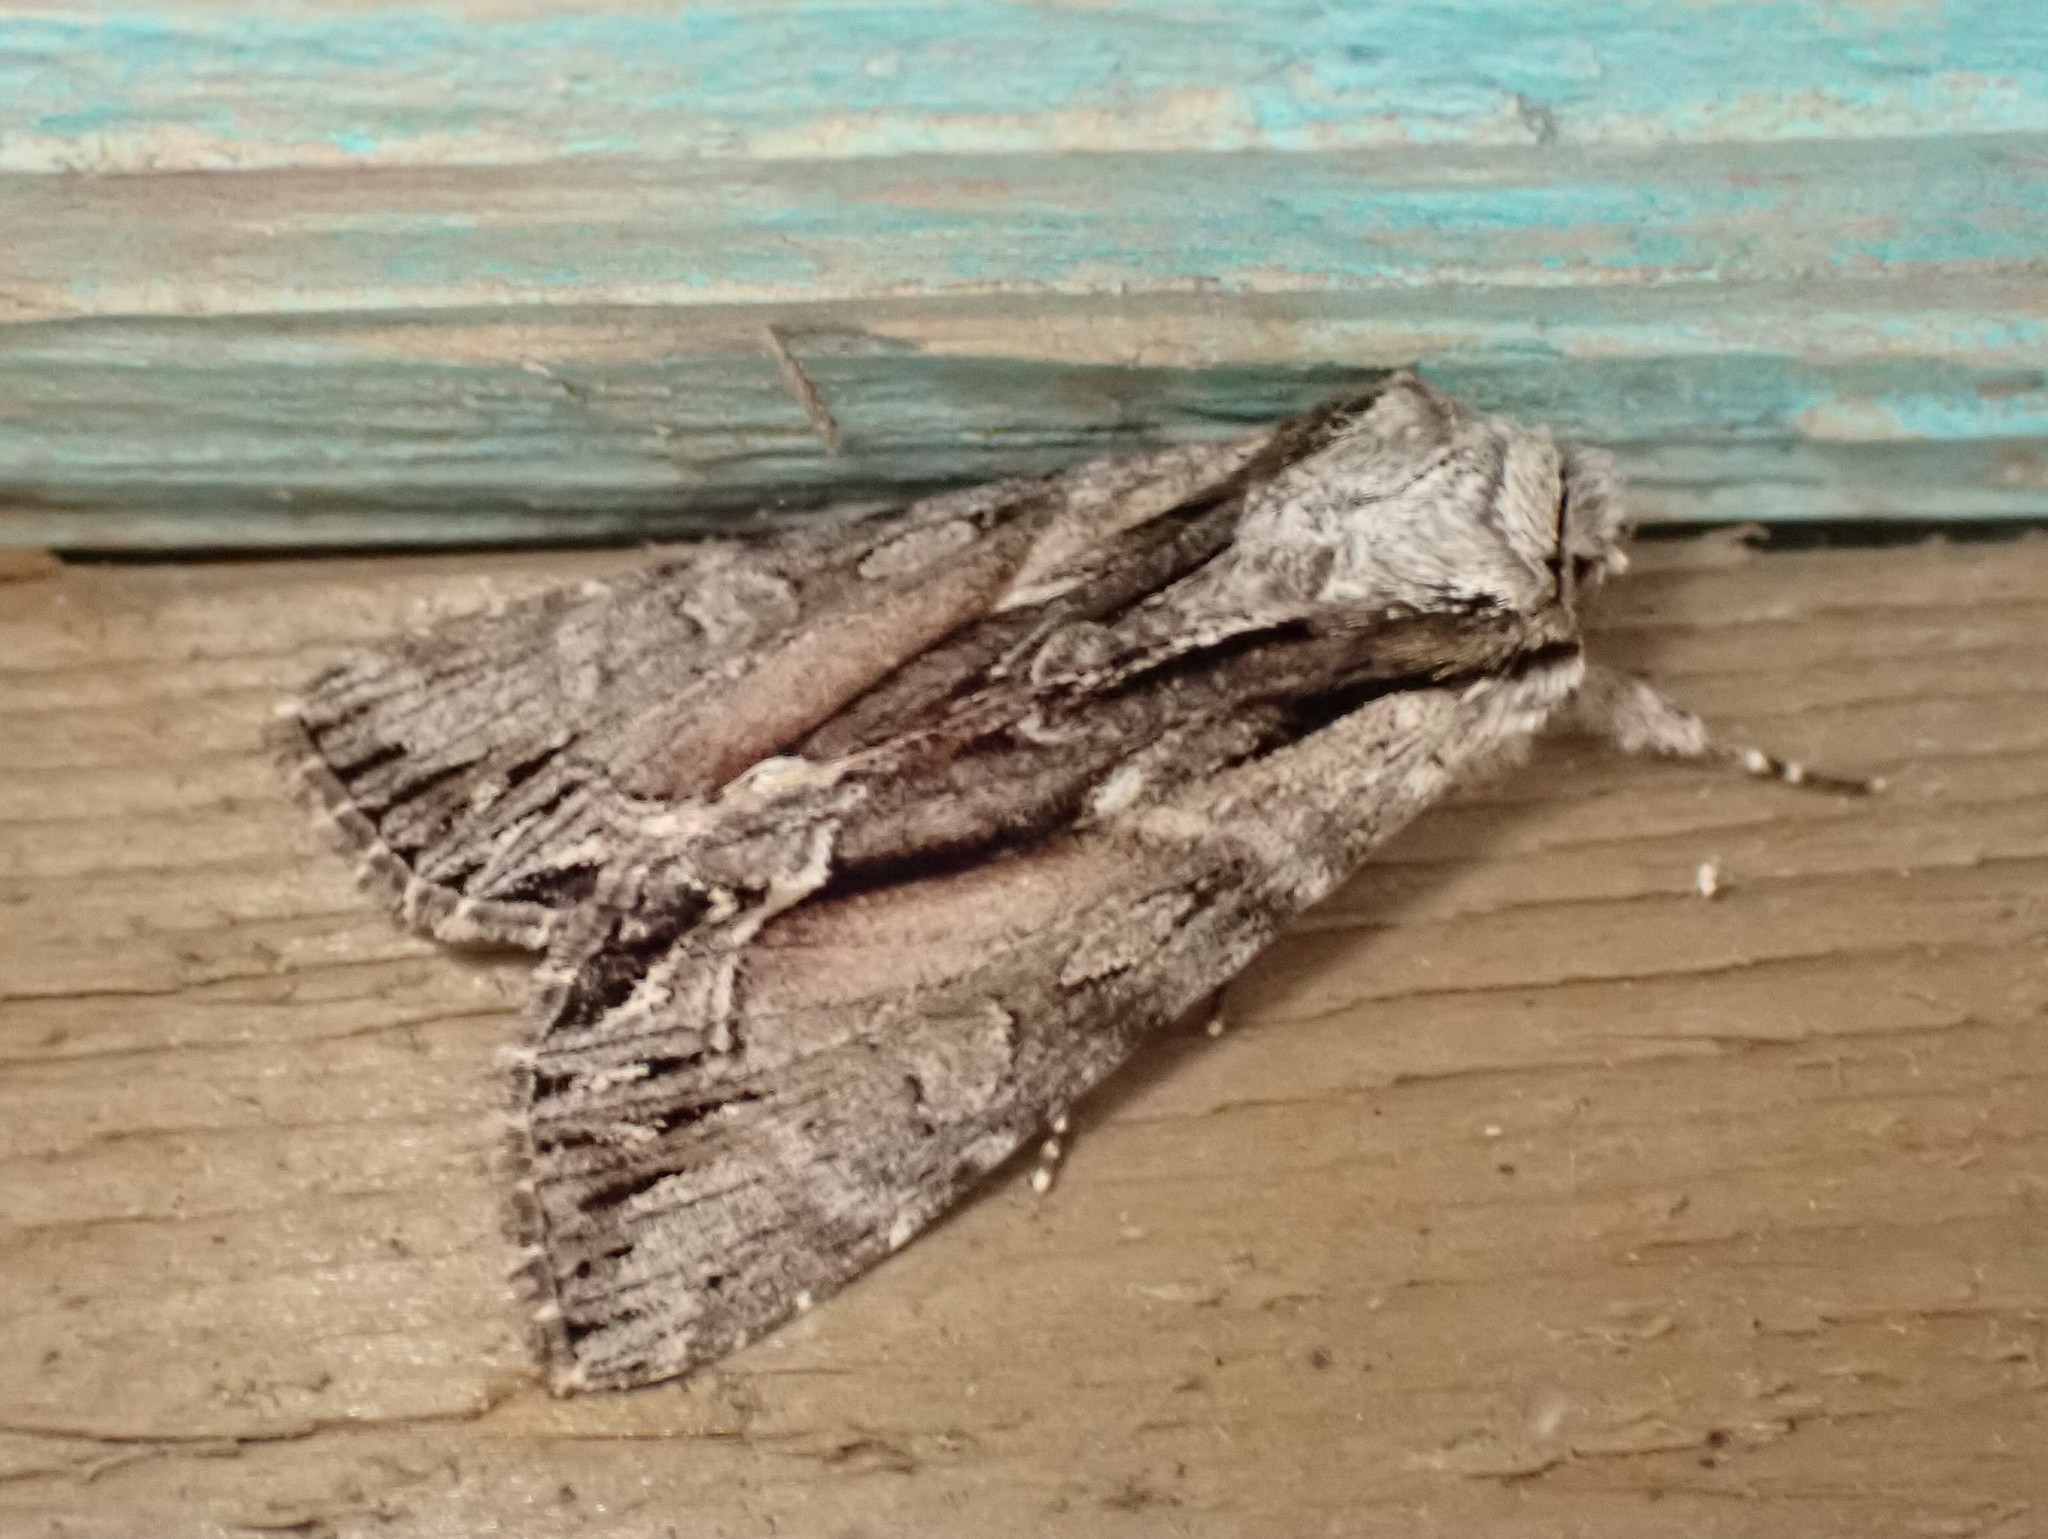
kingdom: Animalia
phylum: Arthropoda
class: Insecta
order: Lepidoptera
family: Noctuidae
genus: Hyppa
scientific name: Hyppa xylinoides
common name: Common hyppa moth
